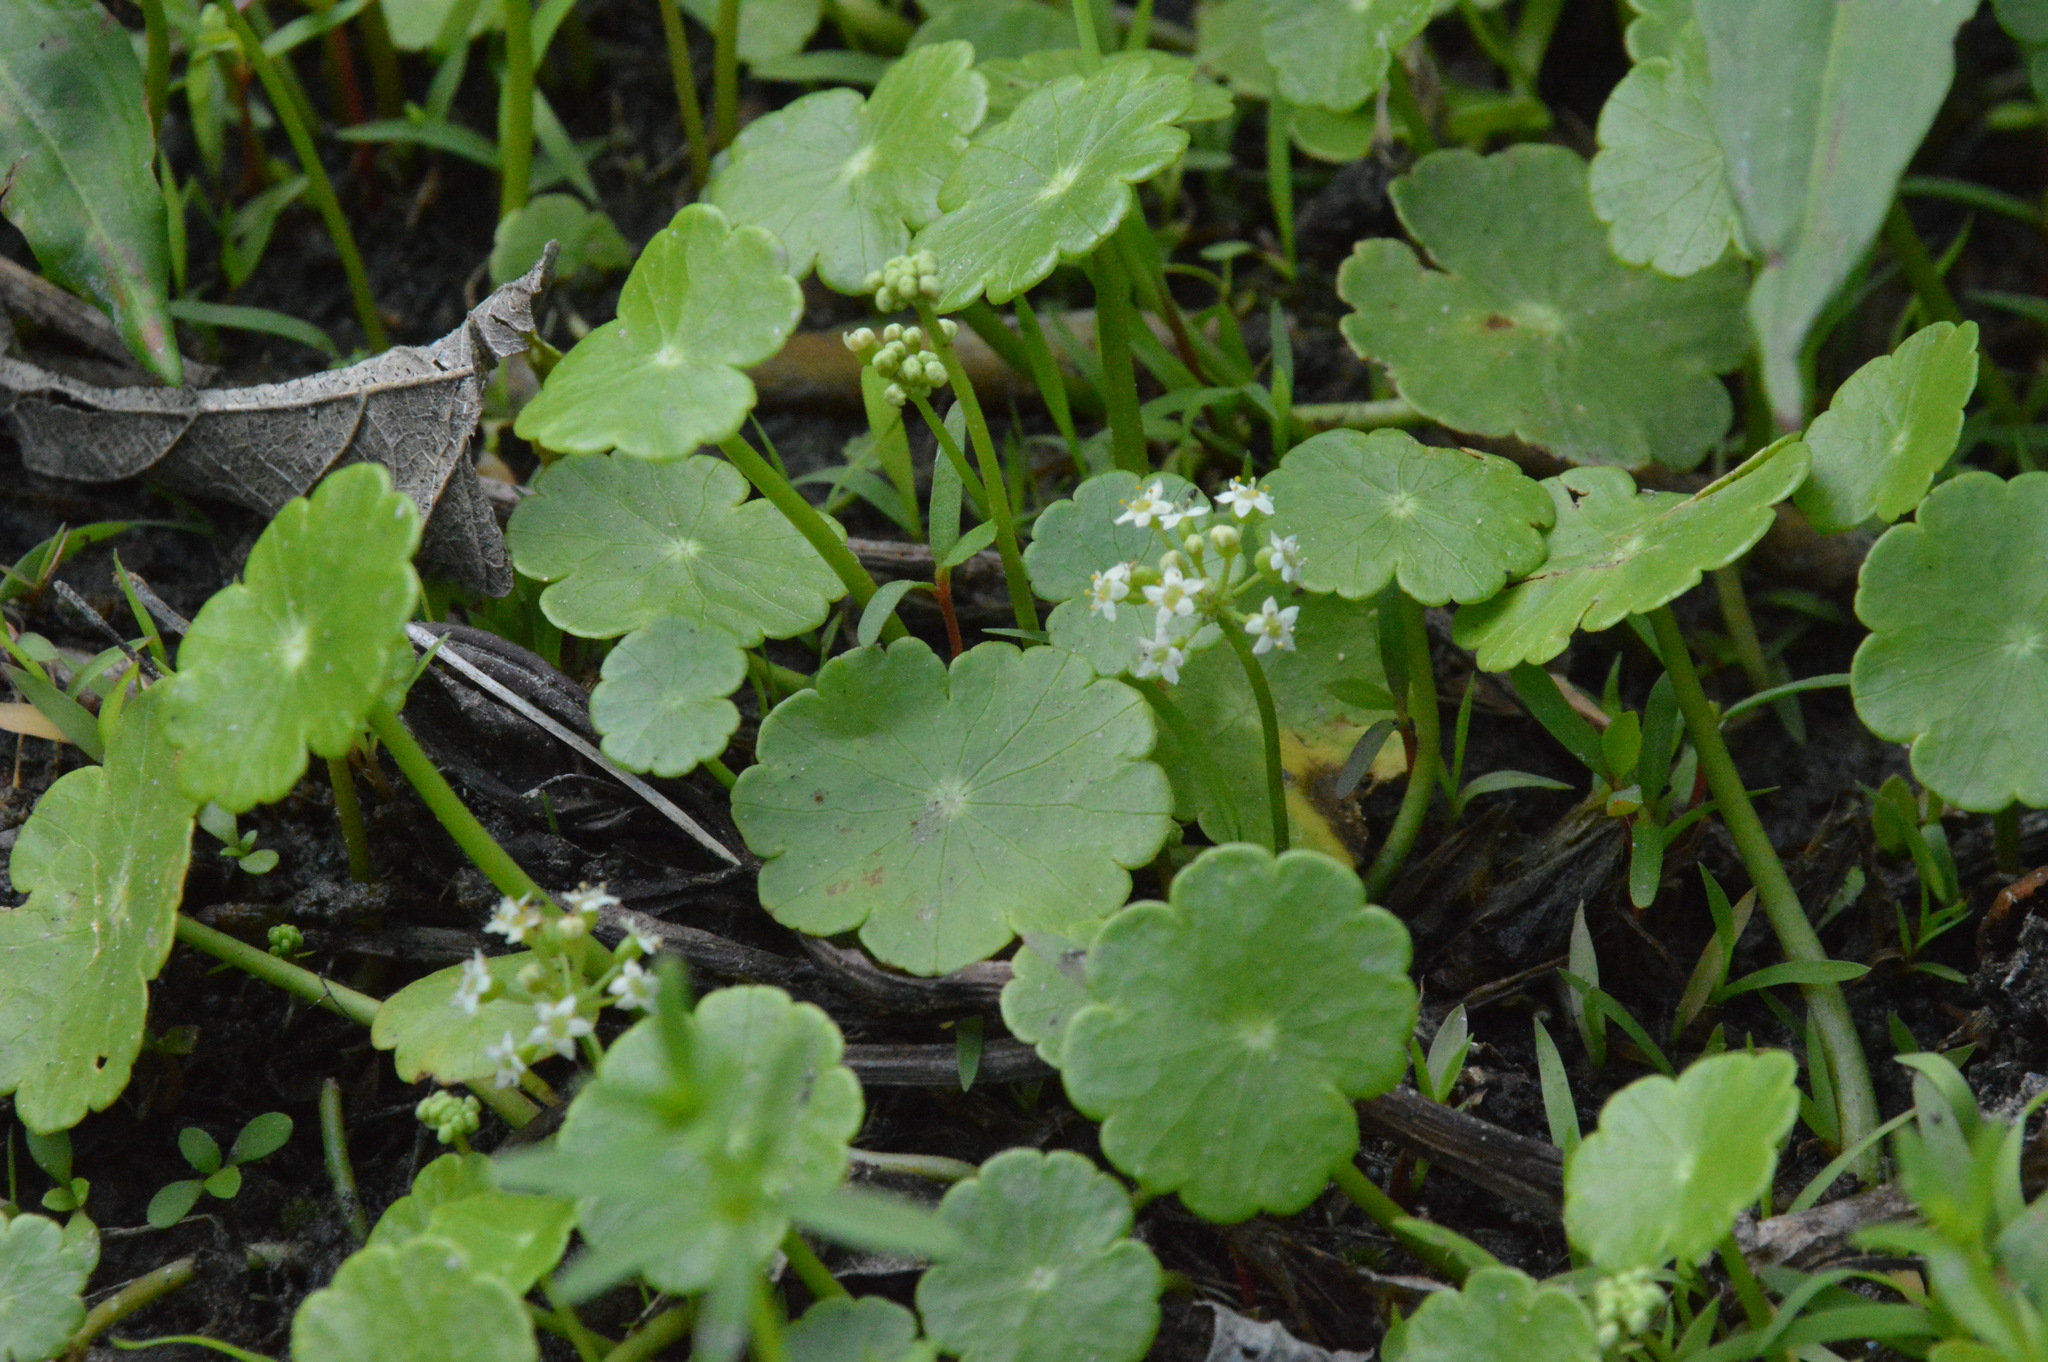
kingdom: Plantae
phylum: Tracheophyta
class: Magnoliopsida
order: Apiales
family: Araliaceae
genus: Hydrocotyle
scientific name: Hydrocotyle umbellata
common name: Water pennywort
